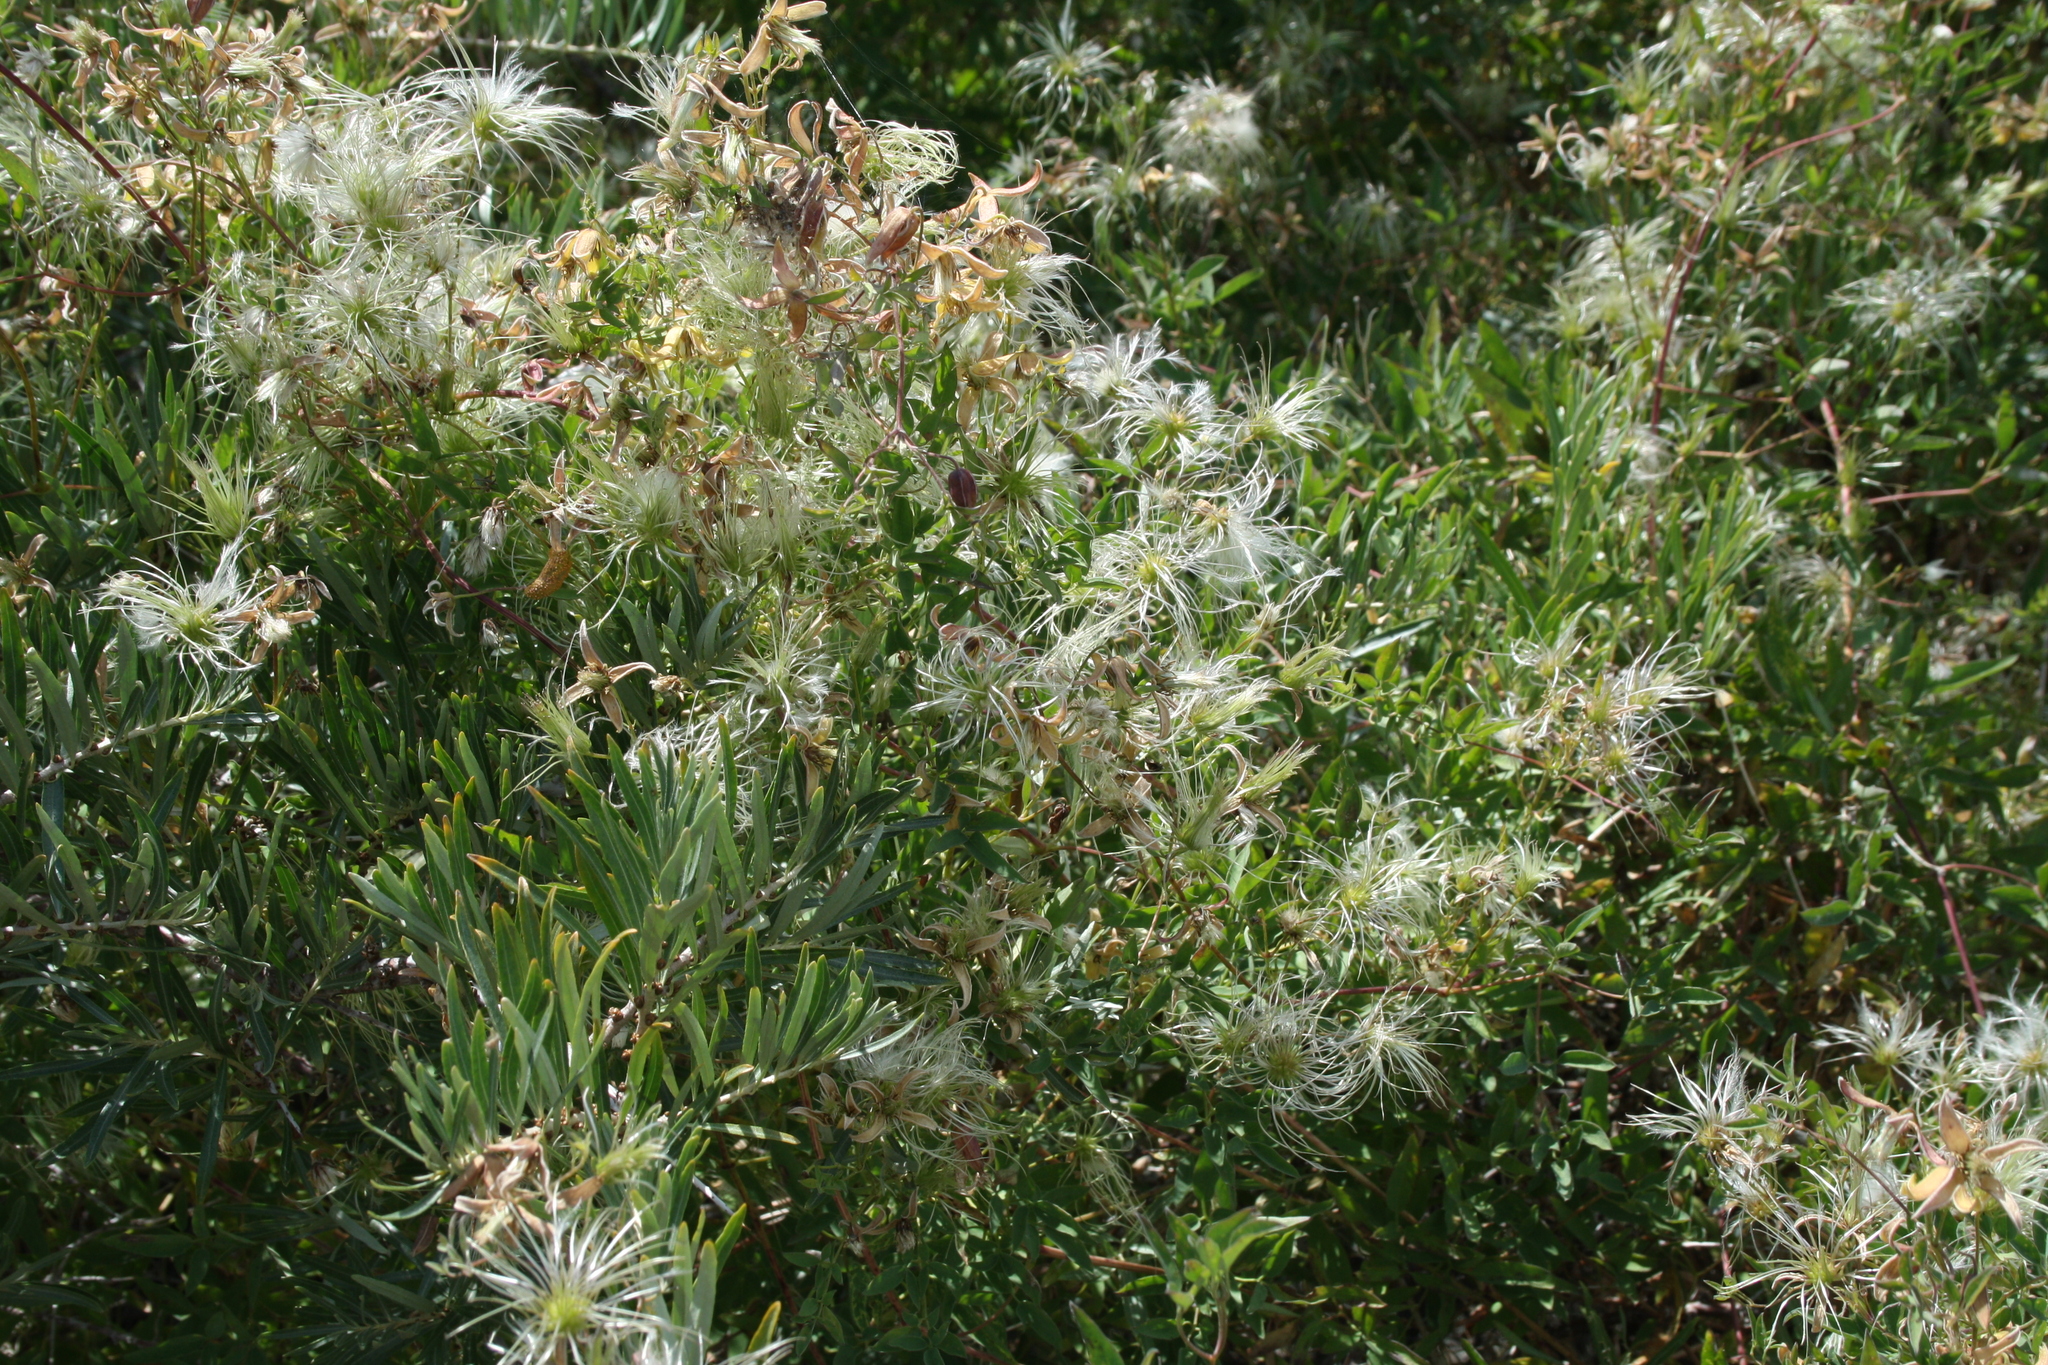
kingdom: Plantae
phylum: Tracheophyta
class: Magnoliopsida
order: Ranunculales
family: Ranunculaceae
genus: Clematis
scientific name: Clematis orientalis
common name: Oriental virgin's-bower
